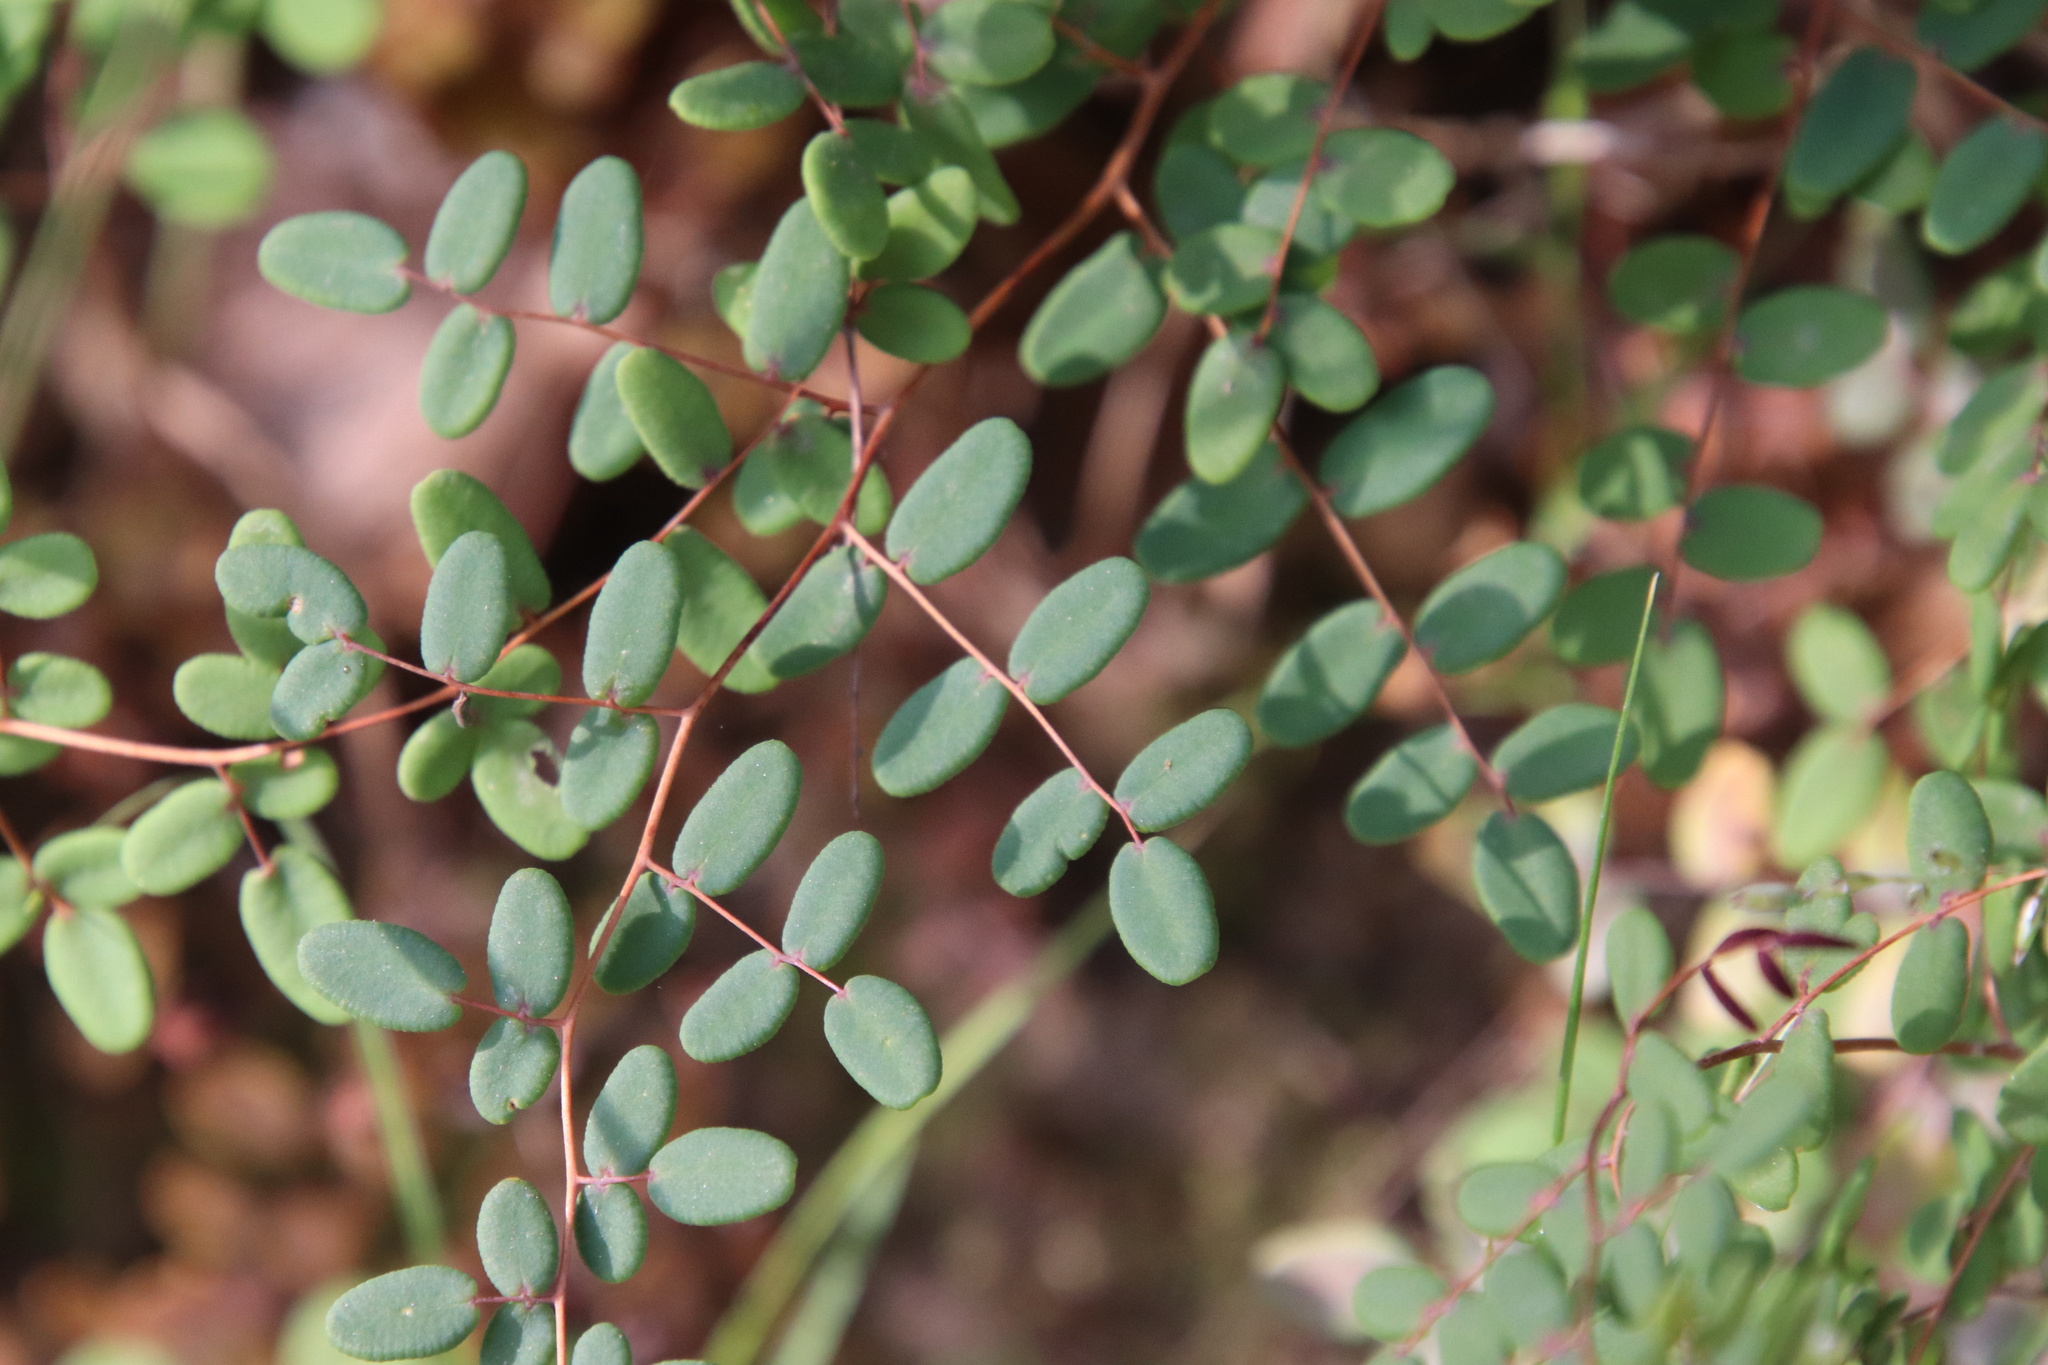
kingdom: Plantae
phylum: Tracheophyta
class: Polypodiopsida
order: Polypodiales
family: Pteridaceae
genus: Pellaea
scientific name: Pellaea andromedifolia
